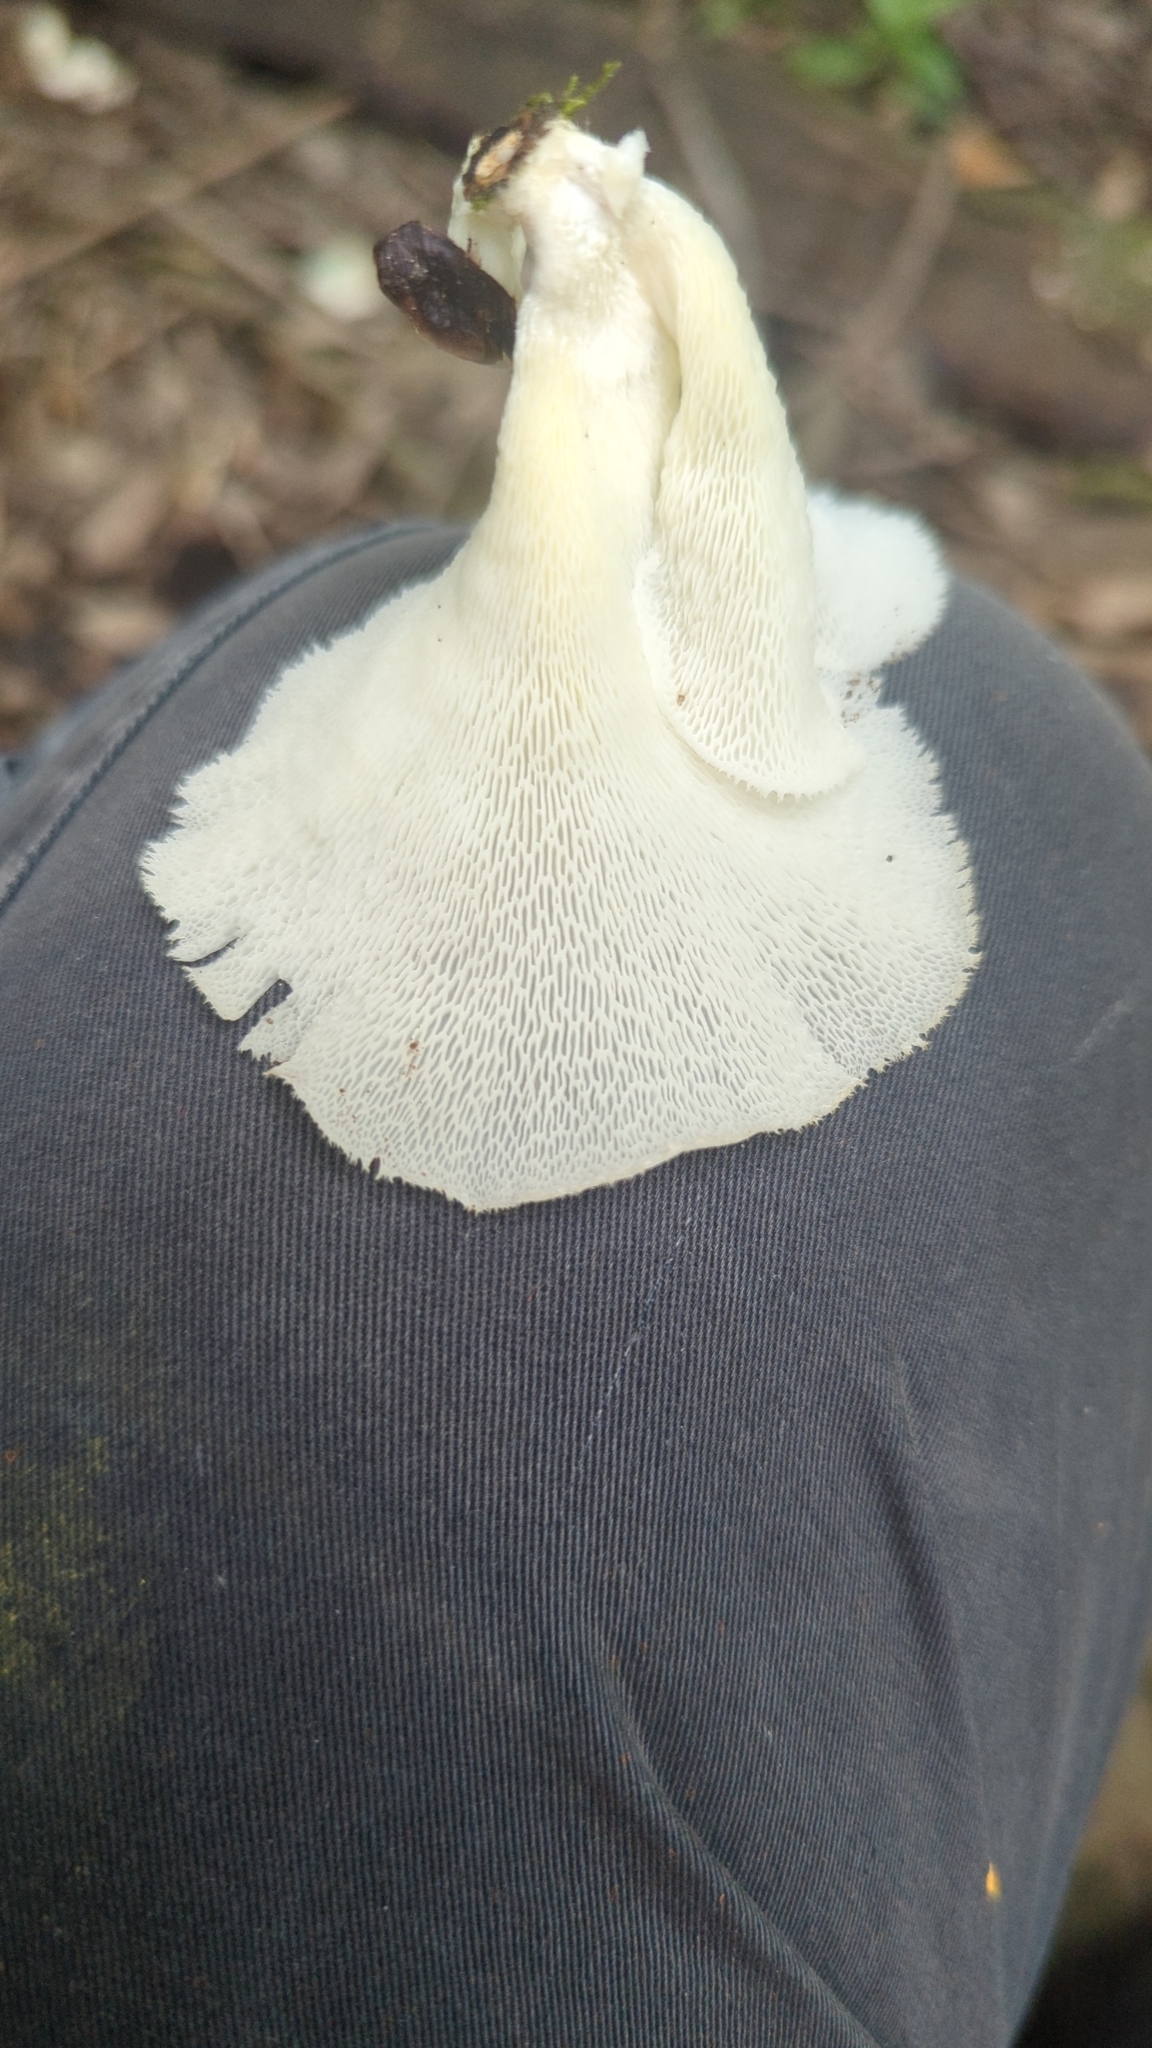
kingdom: Fungi
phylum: Basidiomycota
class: Agaricomycetes
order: Polyporales
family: Polyporaceae
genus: Favolus
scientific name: Favolus tenuiculus
